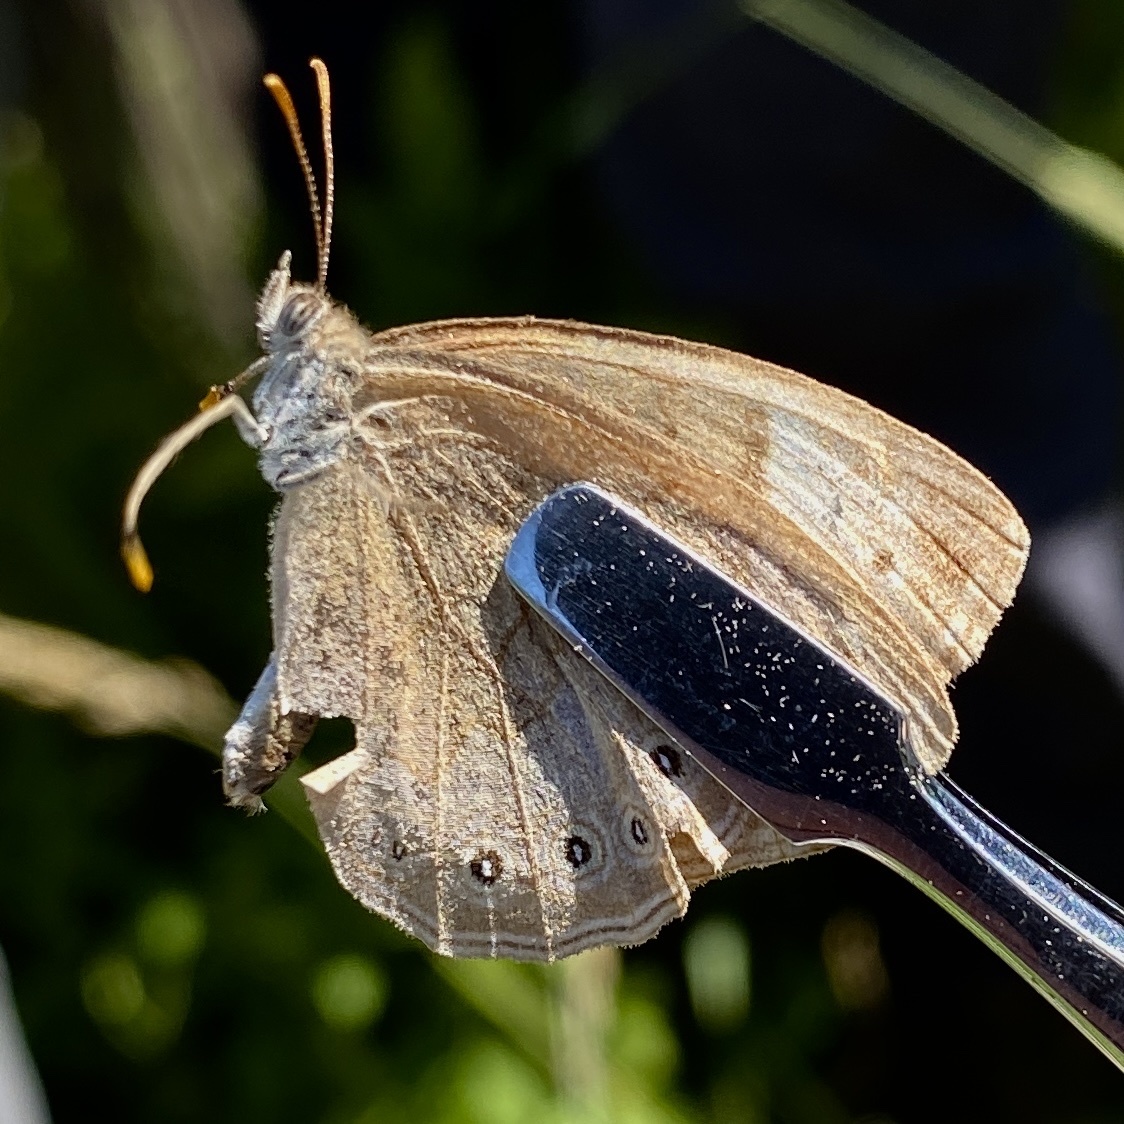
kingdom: Animalia
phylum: Arthropoda
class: Insecta
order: Lepidoptera
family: Nymphalidae
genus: Lethe
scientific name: Lethe eurydice
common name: Eyed brown
